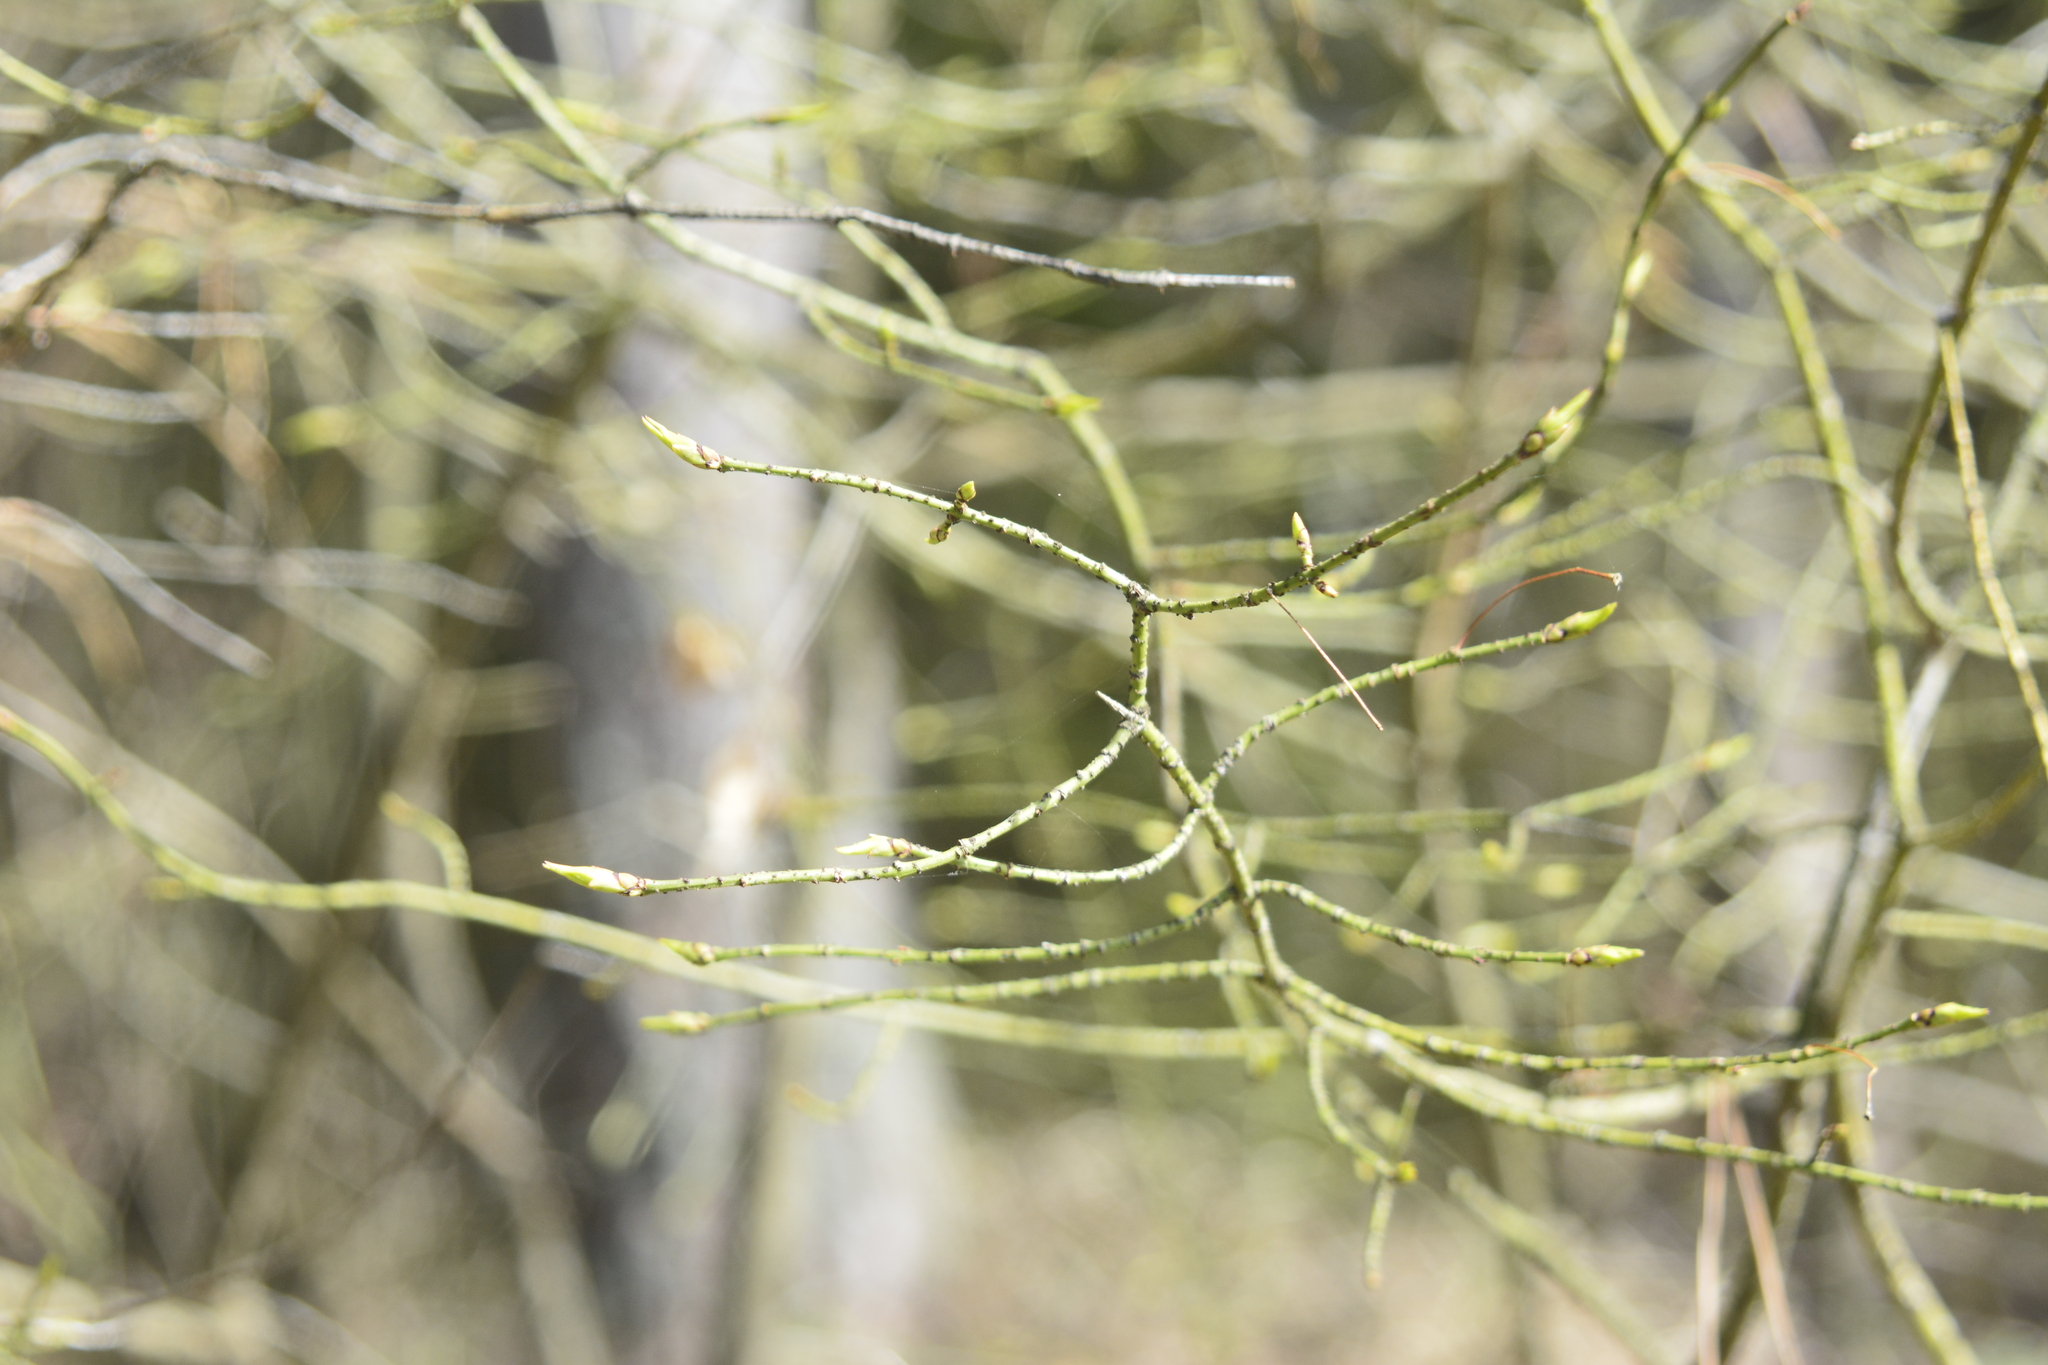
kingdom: Plantae
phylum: Tracheophyta
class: Magnoliopsida
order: Celastrales
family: Celastraceae
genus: Euonymus
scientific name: Euonymus verrucosus
